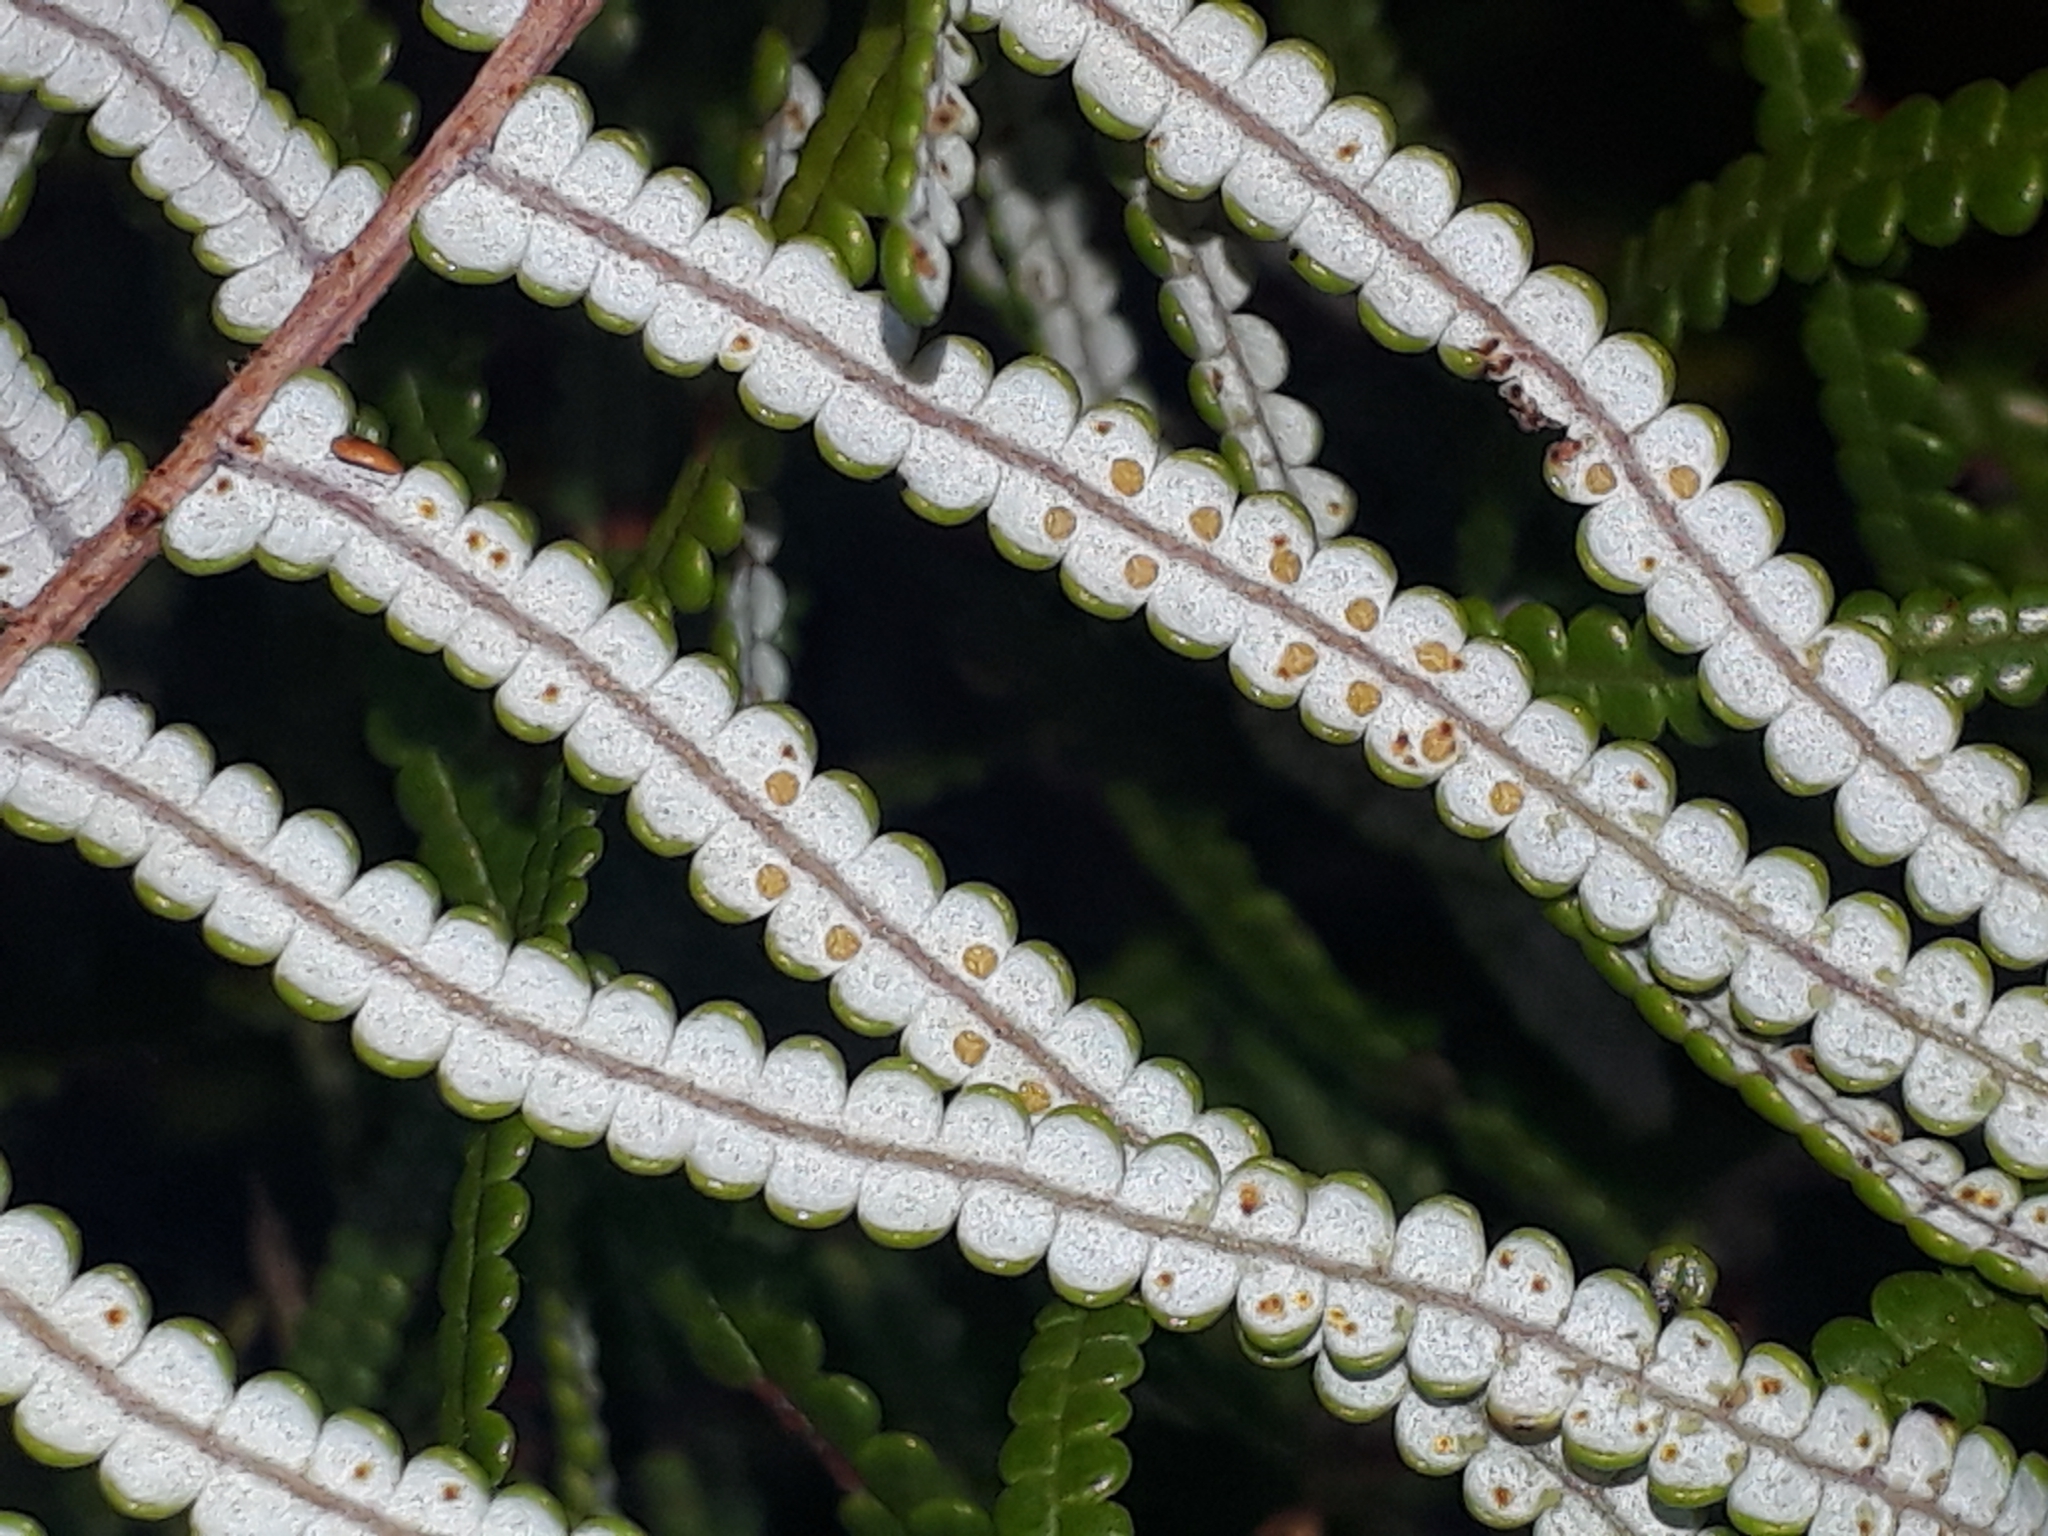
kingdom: Plantae
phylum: Tracheophyta
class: Polypodiopsida
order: Gleicheniales
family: Gleicheniaceae
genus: Gleichenia
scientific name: Gleichenia inclusisora
